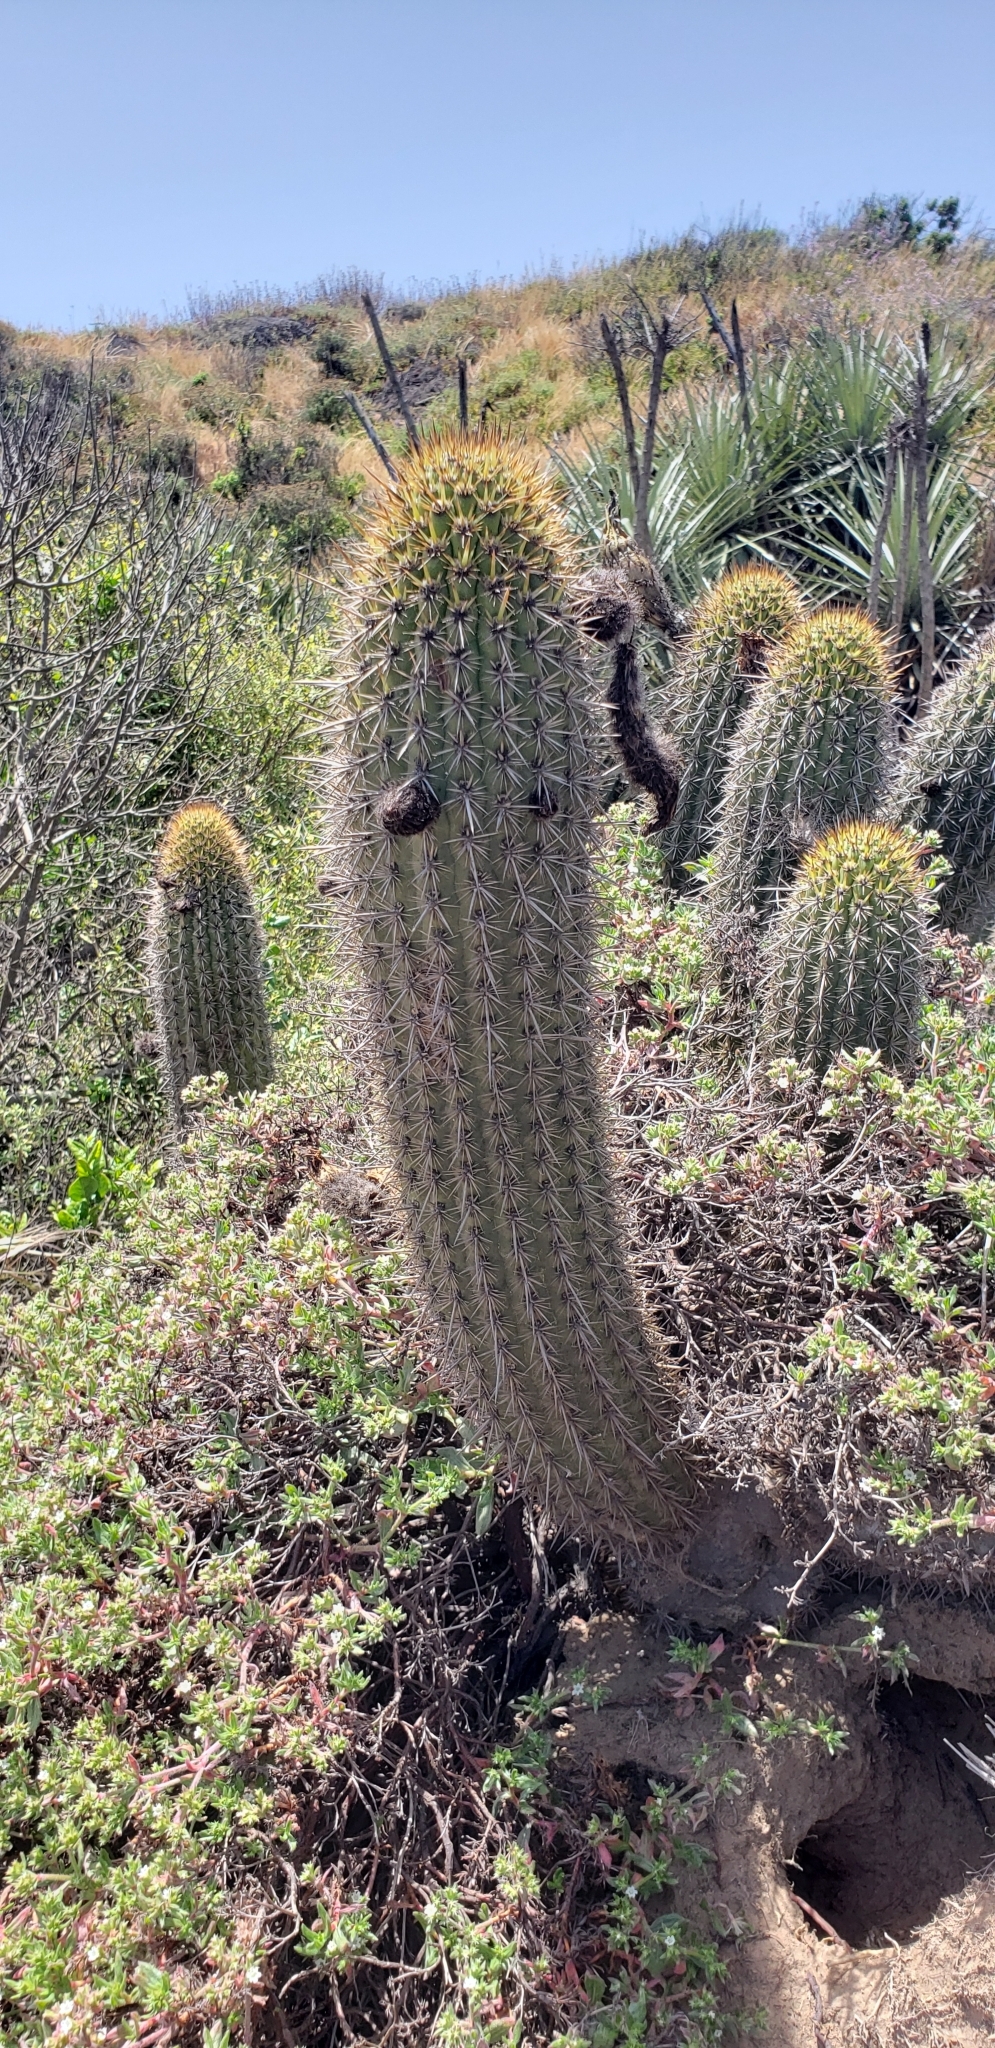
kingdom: Plantae
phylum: Tracheophyta
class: Magnoliopsida
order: Caryophyllales
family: Cactaceae
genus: Leucostele
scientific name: Leucostele chiloensis
